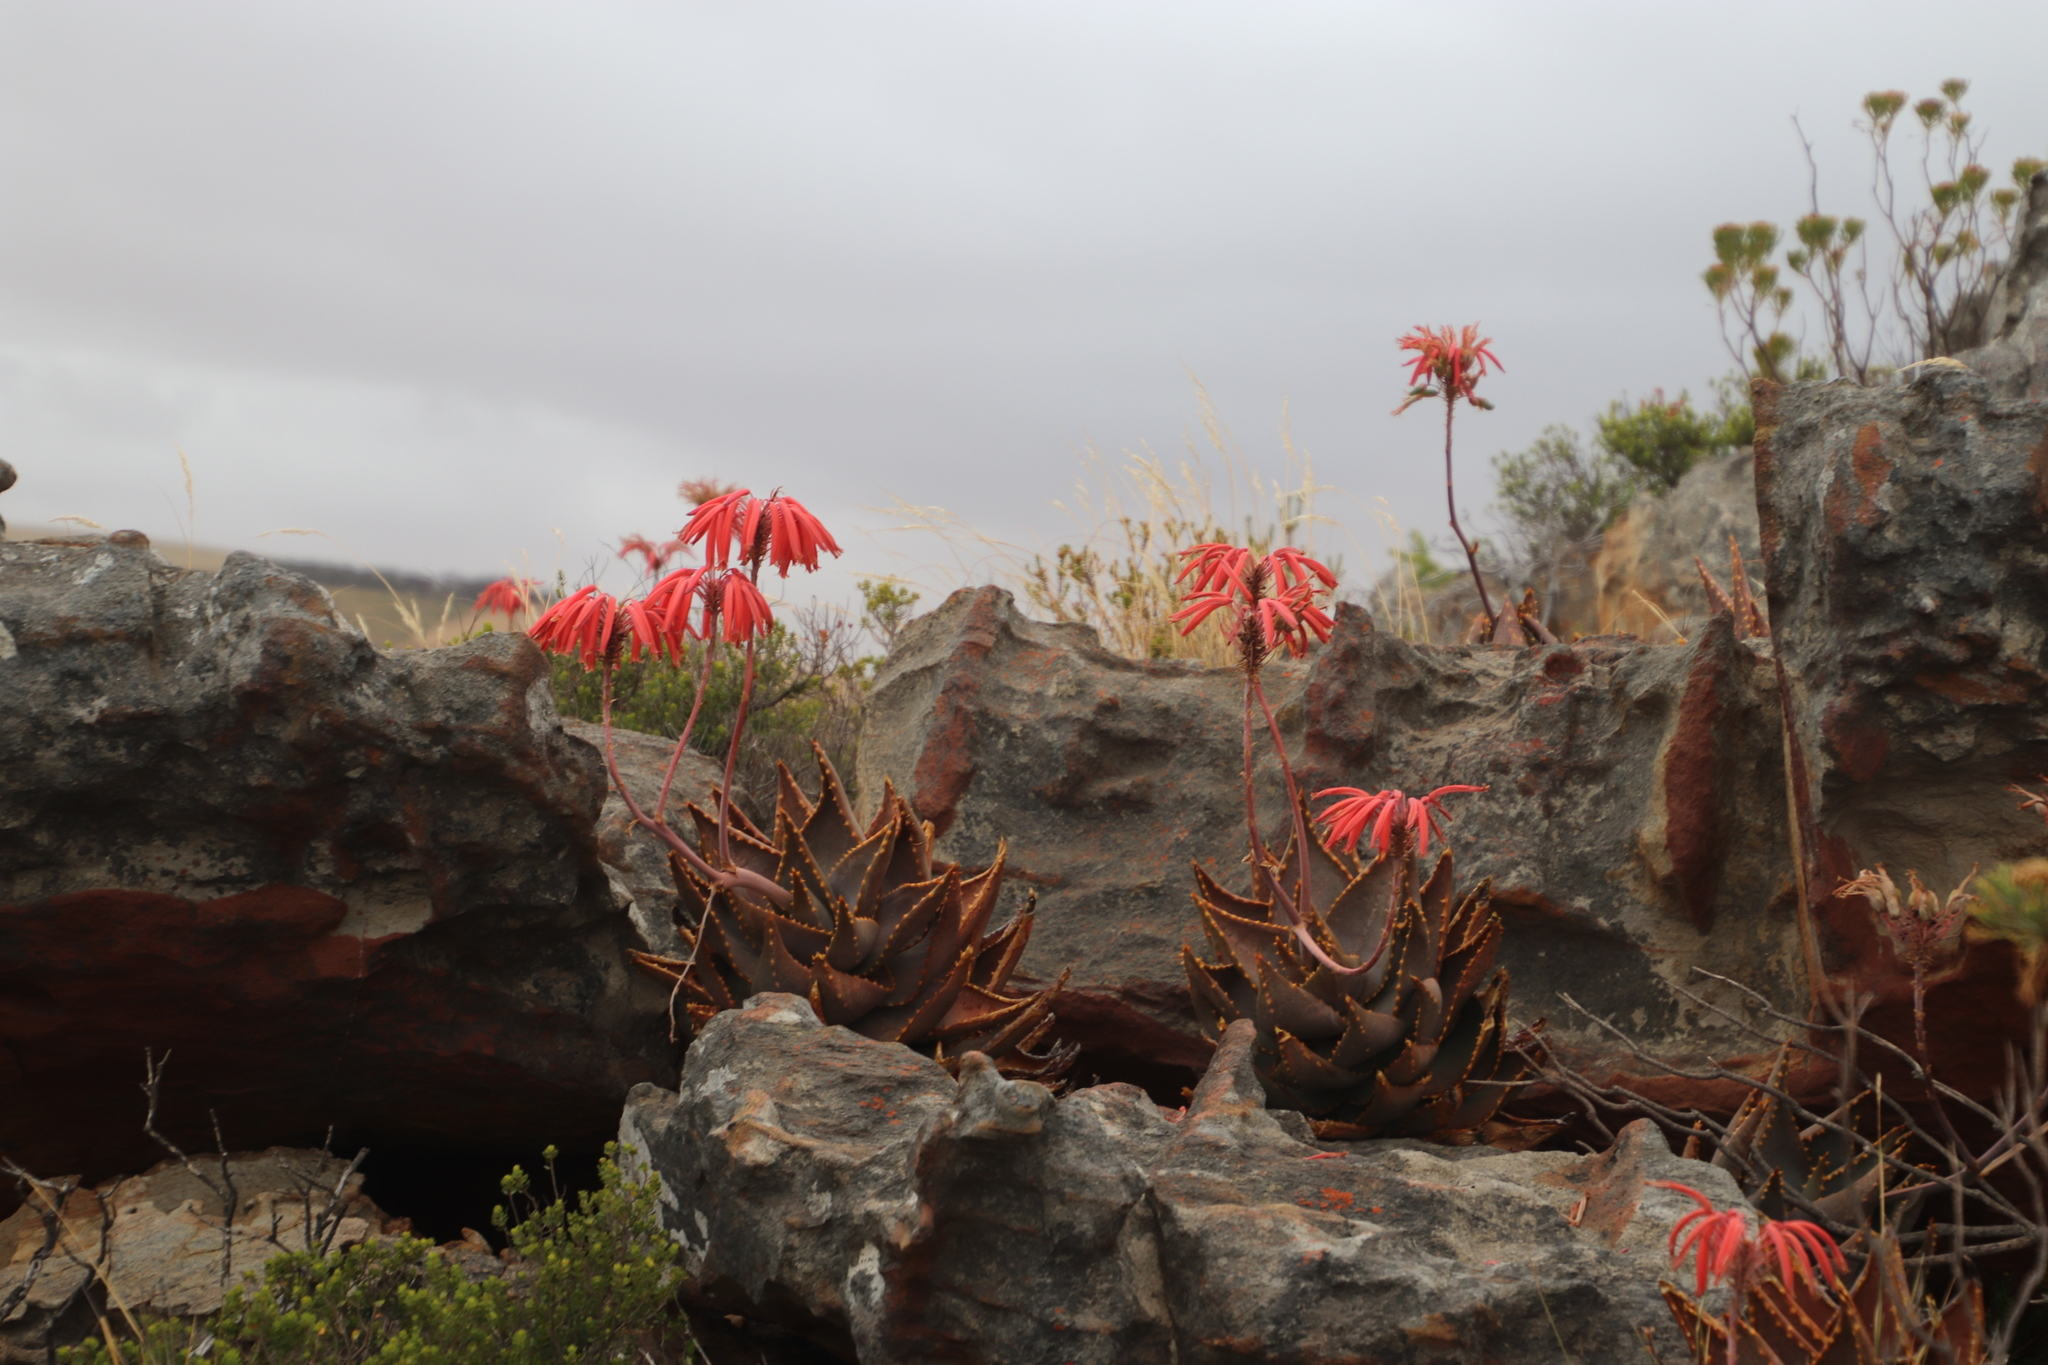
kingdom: Plantae
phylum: Tracheophyta
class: Liliopsida
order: Asparagales
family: Asphodelaceae
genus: Aloe
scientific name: Aloe perfoliata
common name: Mitra aloe
